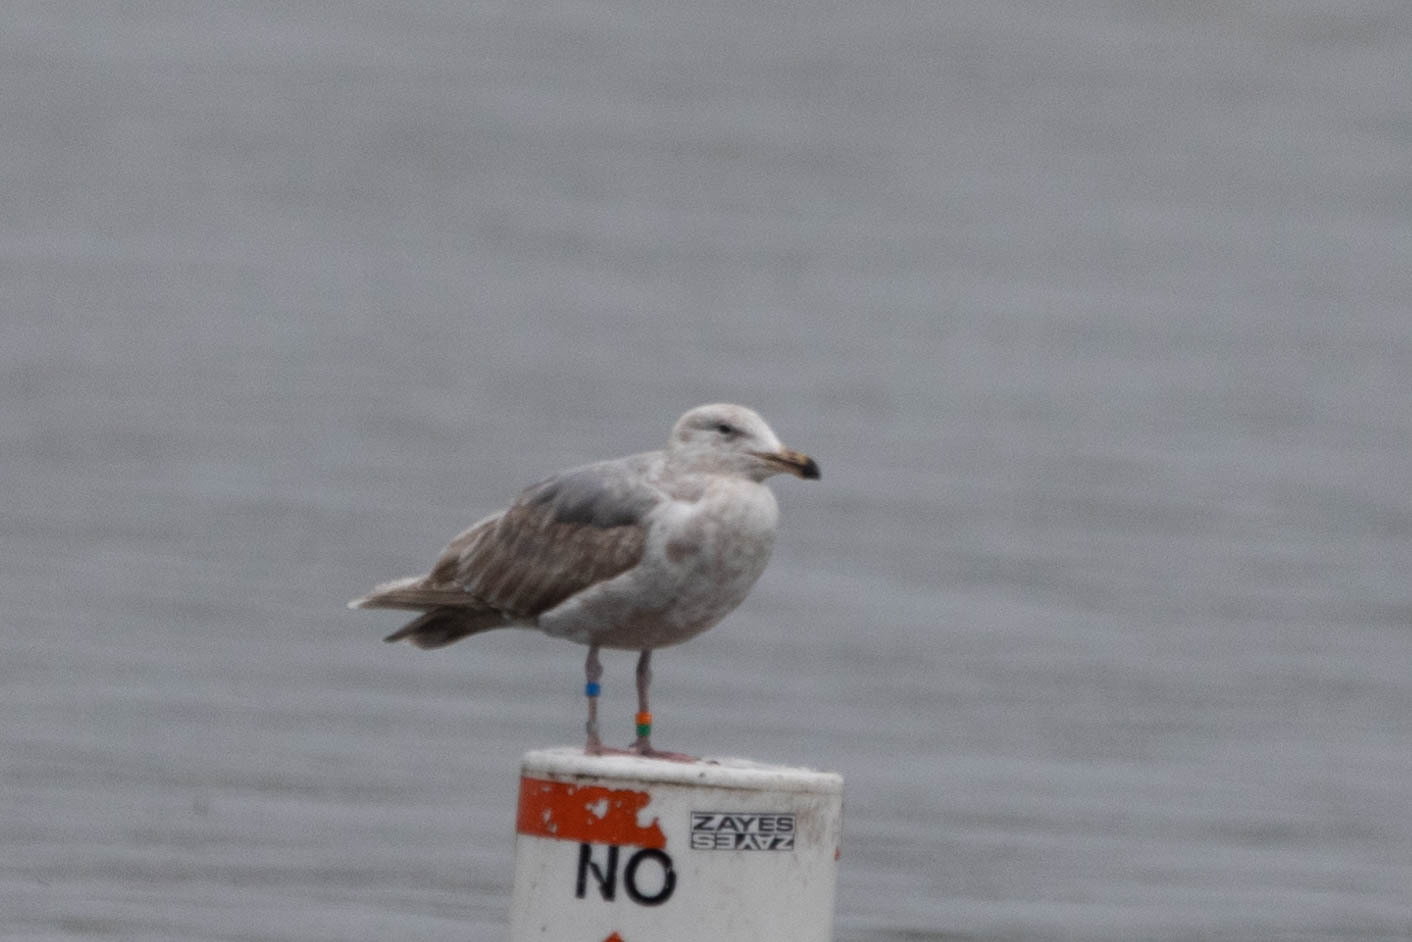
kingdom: Animalia
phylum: Chordata
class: Aves
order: Charadriiformes
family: Laridae
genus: Larus
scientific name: Larus glaucescens
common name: Glaucous-winged gull
